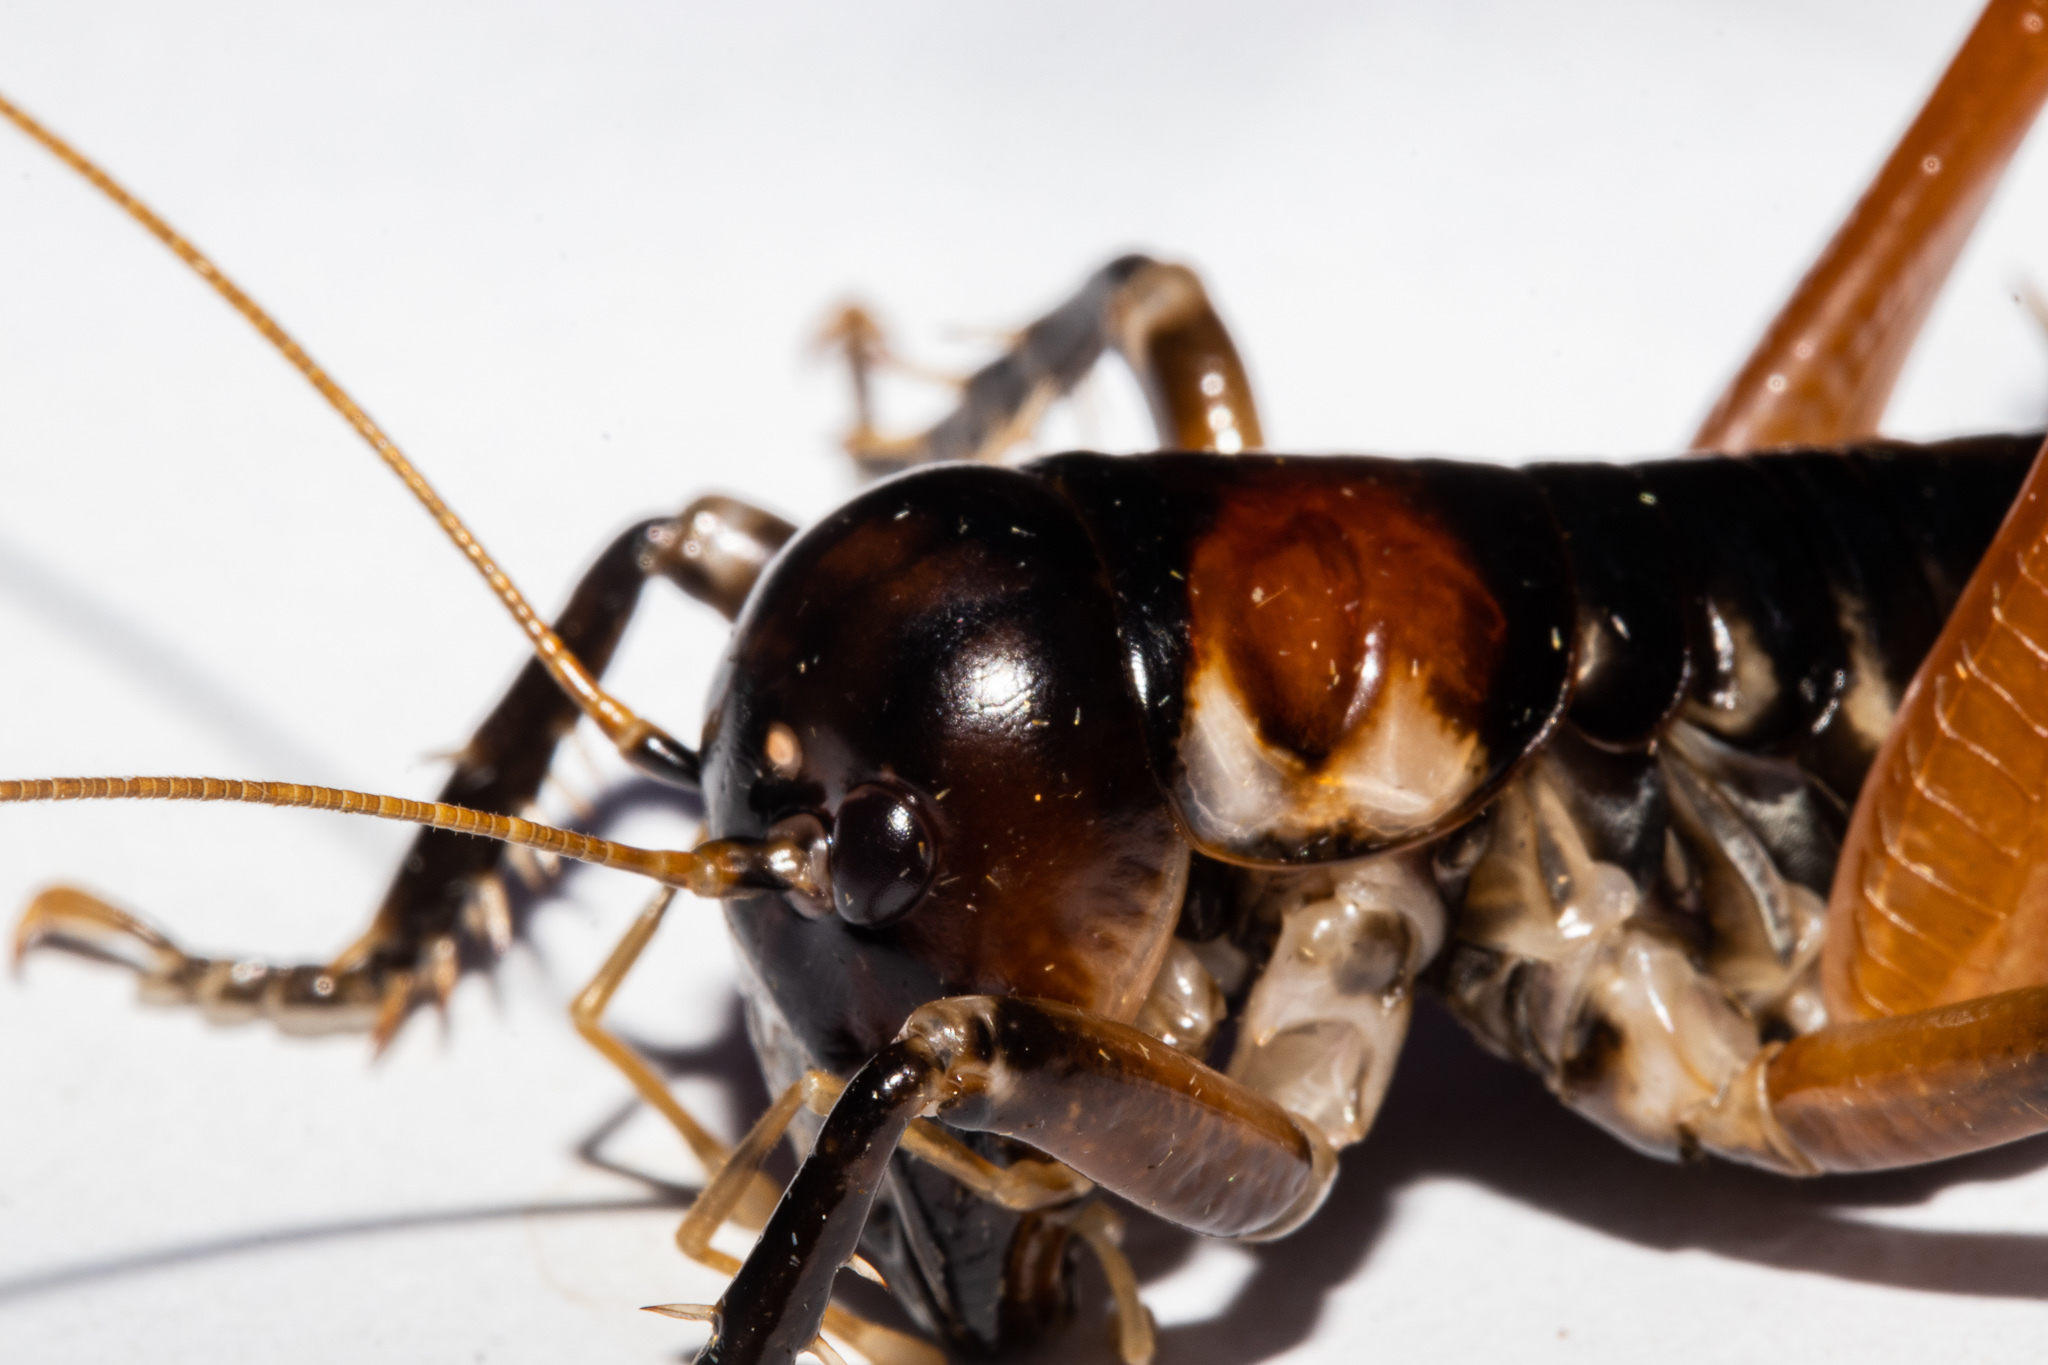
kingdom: Animalia
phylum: Arthropoda
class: Insecta
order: Orthoptera
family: Anostostomatidae
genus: Hemiandrus
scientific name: Hemiandrus fiordensis
